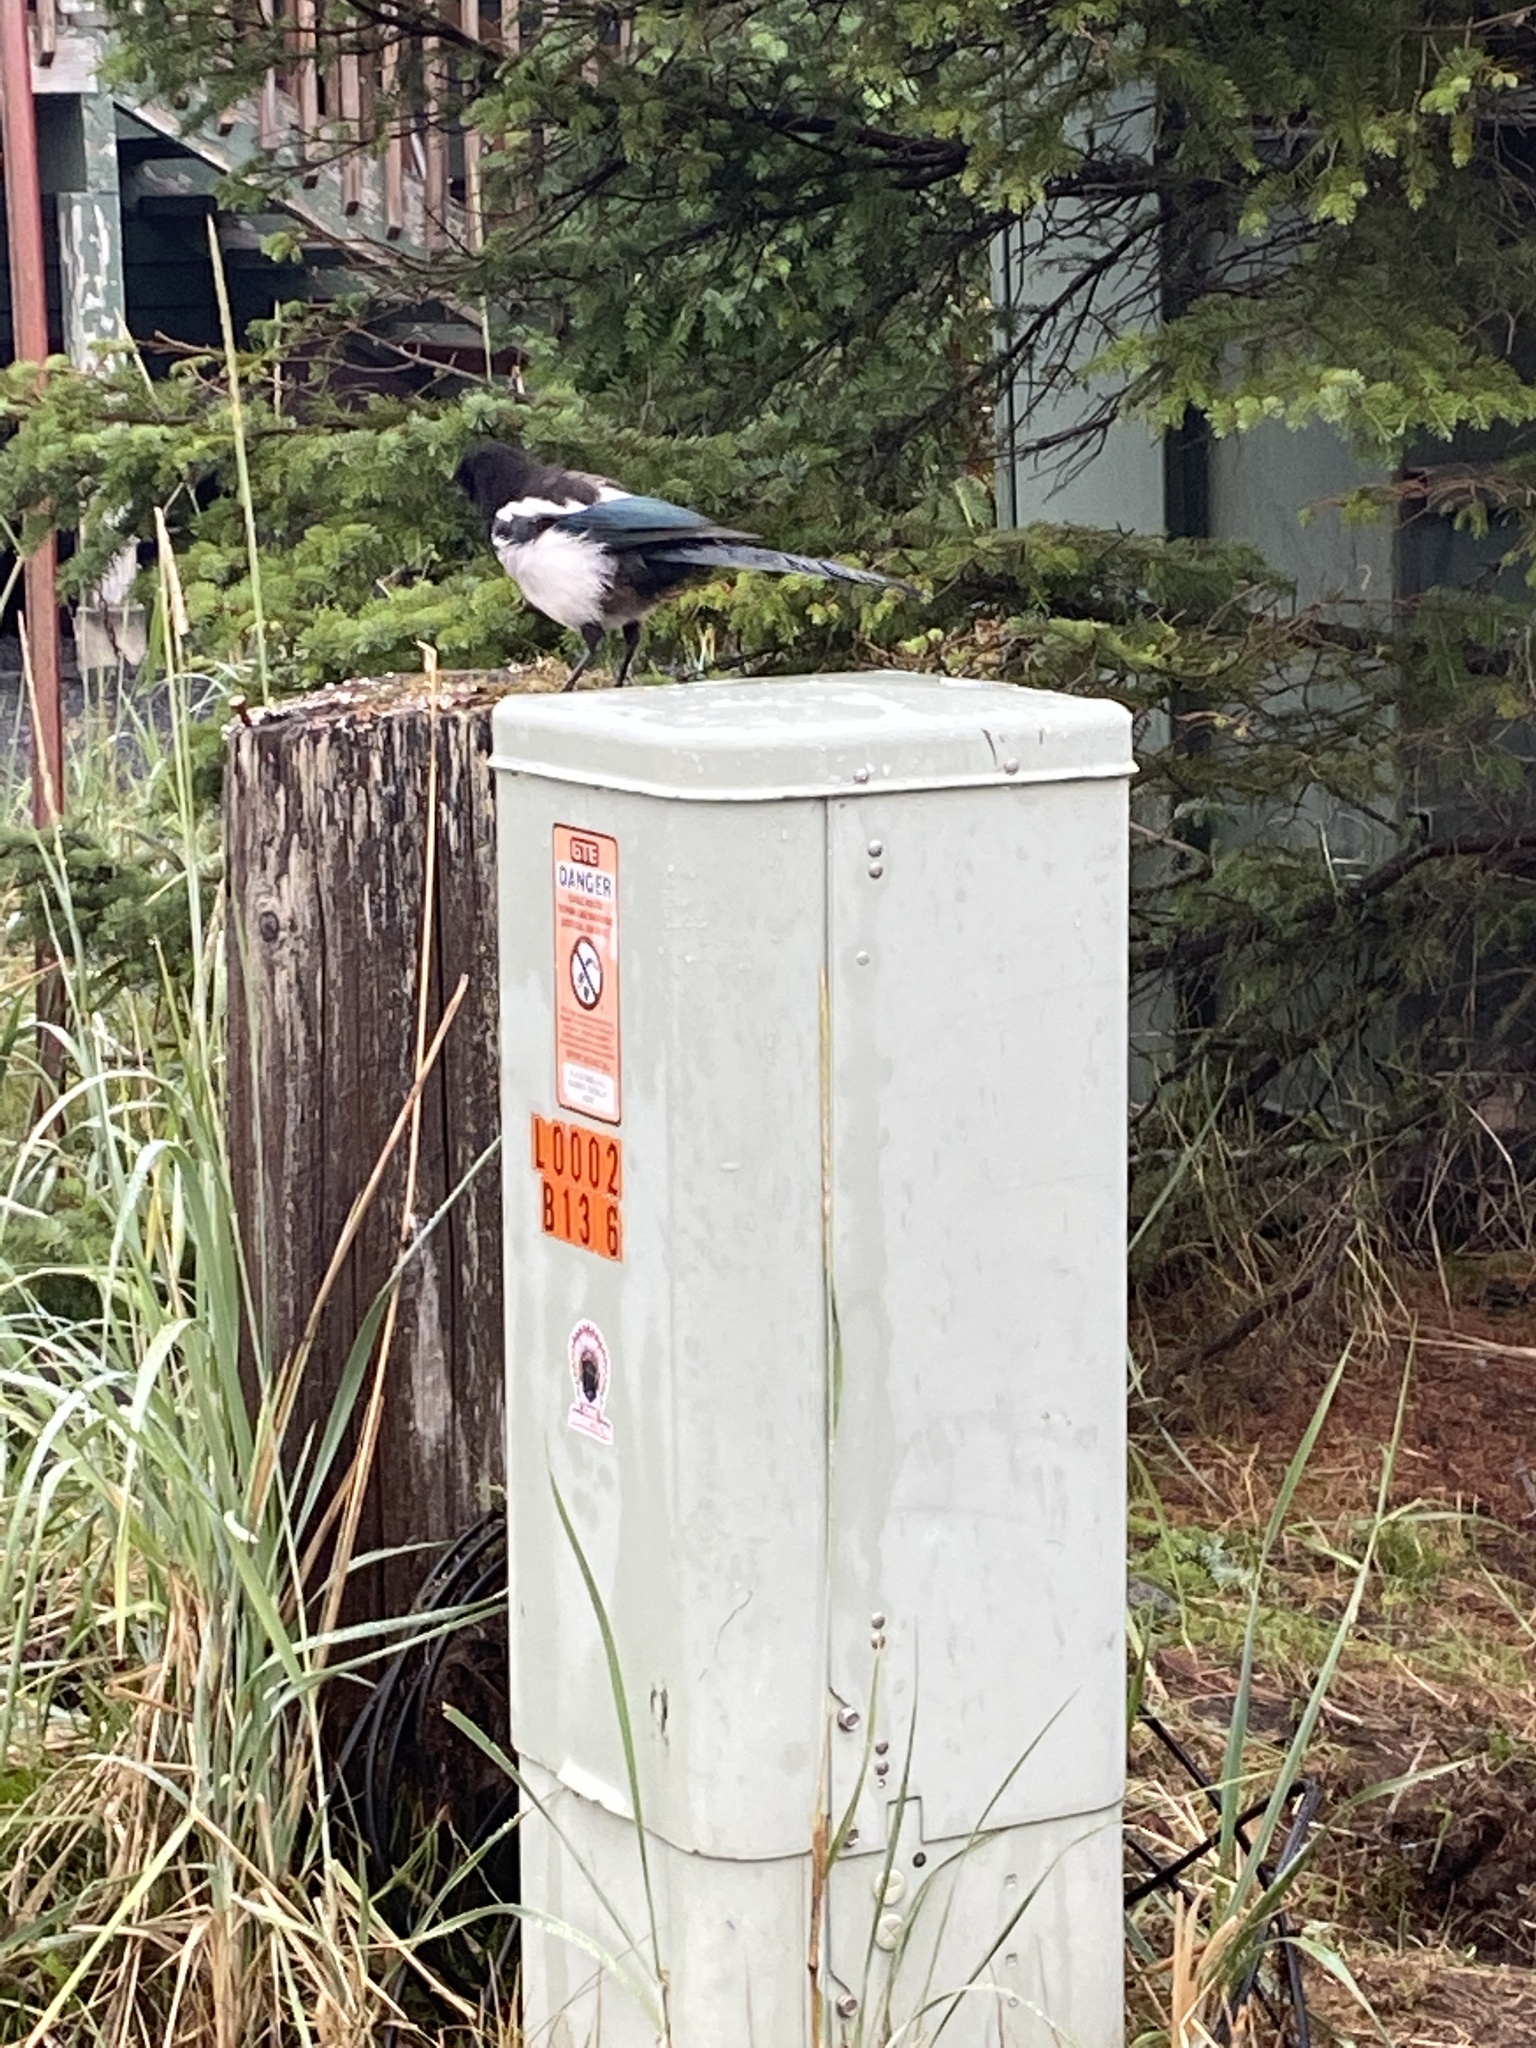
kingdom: Animalia
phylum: Chordata
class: Aves
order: Passeriformes
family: Corvidae
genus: Pica
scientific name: Pica hudsonia
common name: Black-billed magpie
